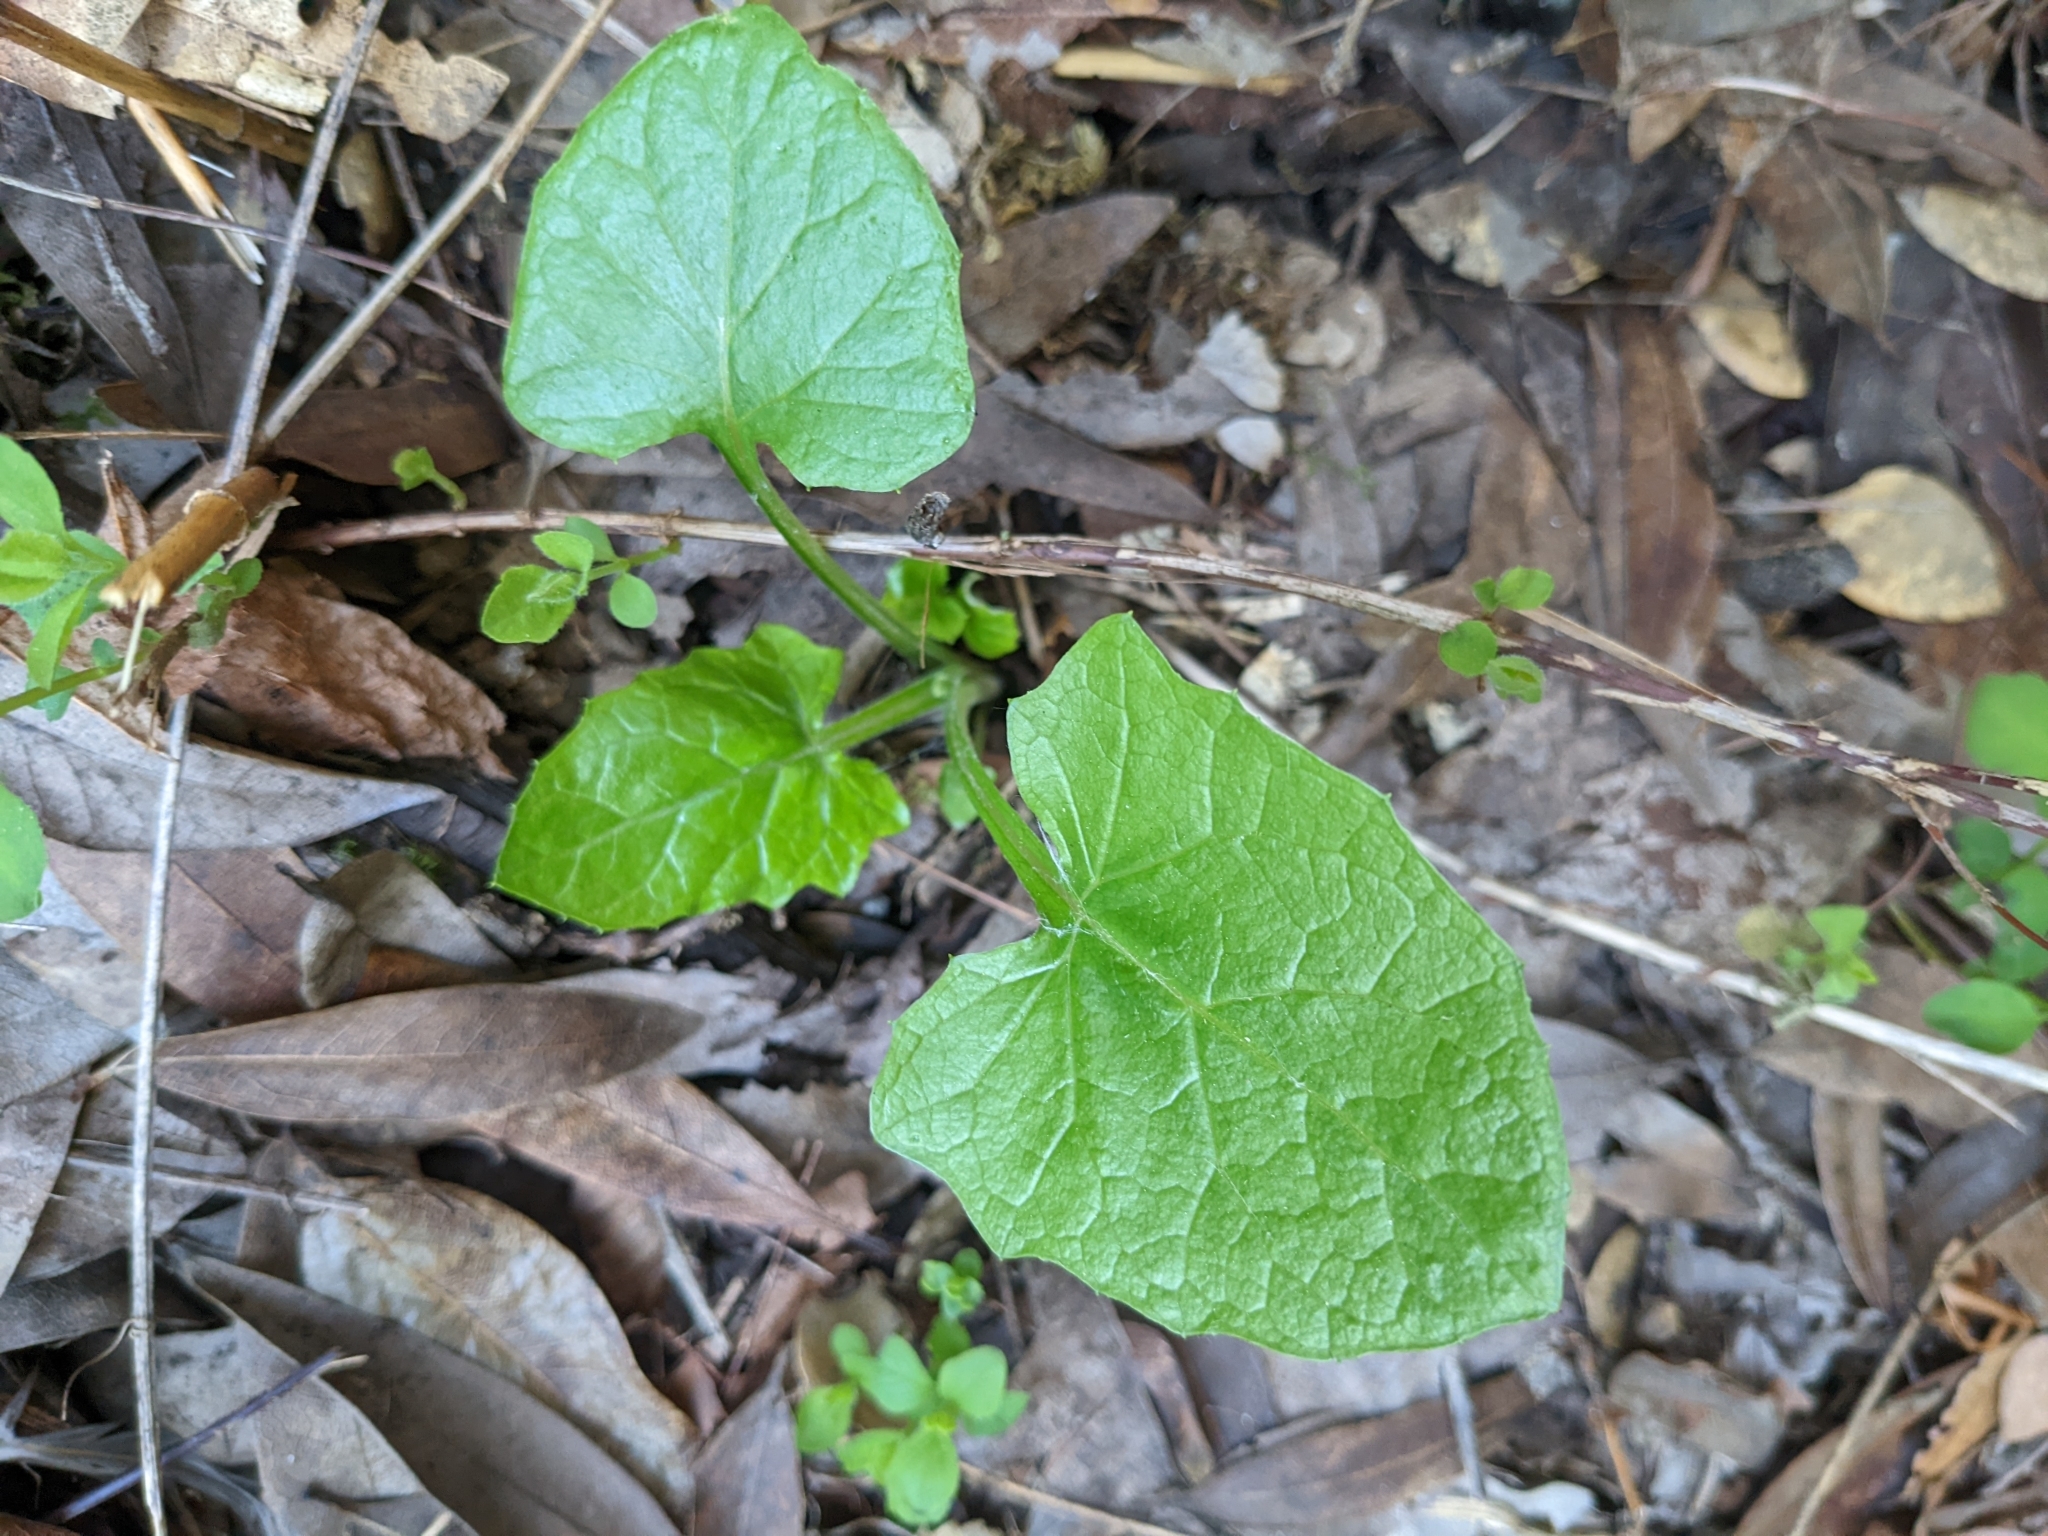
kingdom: Plantae
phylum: Tracheophyta
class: Magnoliopsida
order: Asterales
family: Asteraceae
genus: Adenocaulon
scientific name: Adenocaulon bicolor
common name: Trailplant
